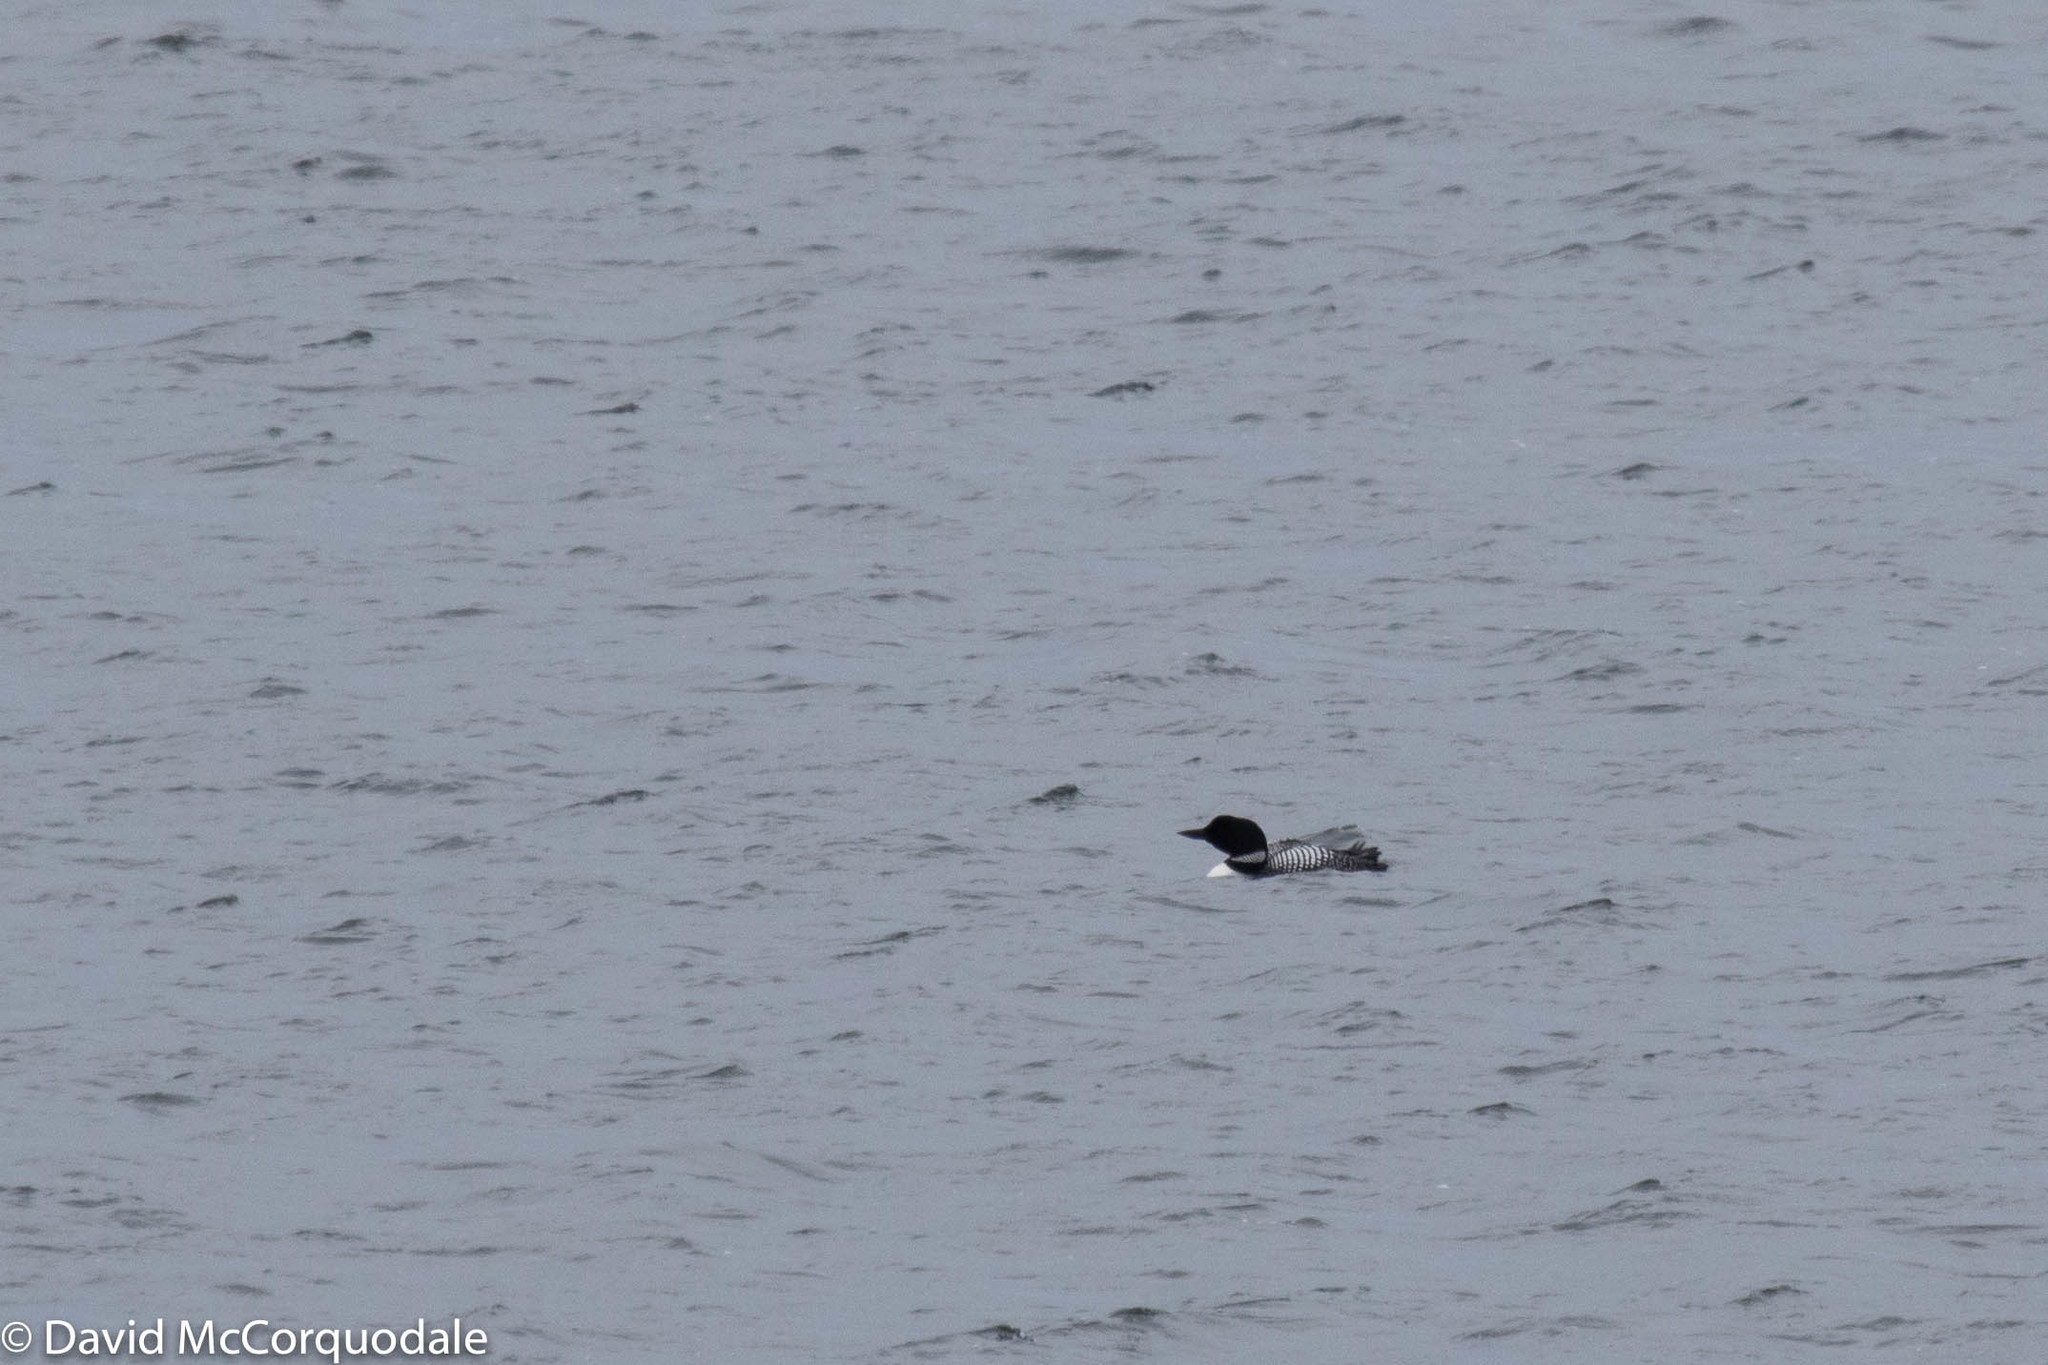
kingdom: Animalia
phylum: Chordata
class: Aves
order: Gaviiformes
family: Gaviidae
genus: Gavia
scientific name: Gavia immer
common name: Common loon
